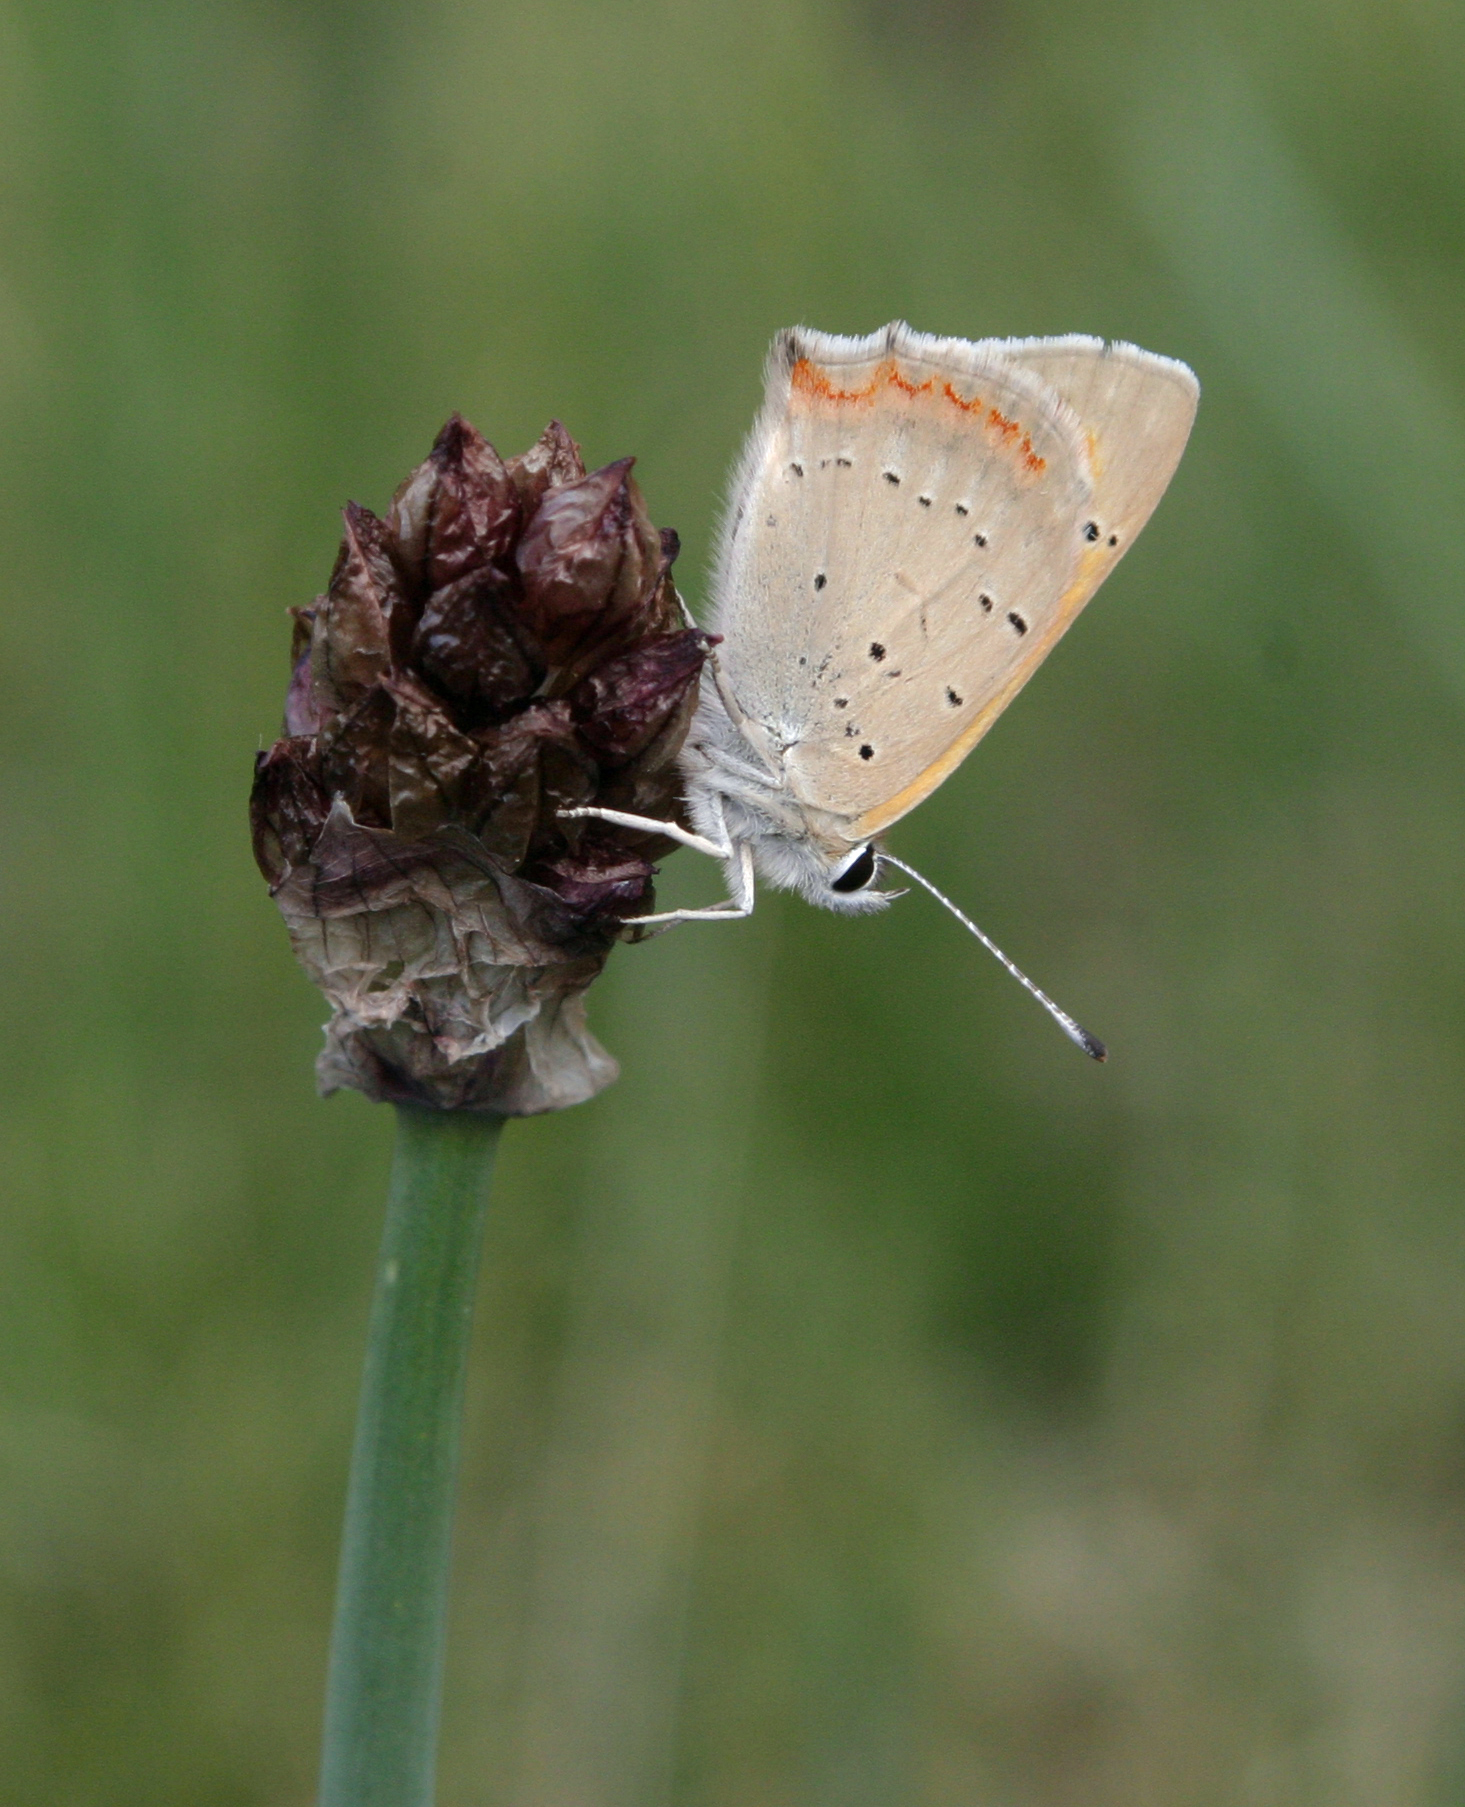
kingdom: Plantae
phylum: Tracheophyta
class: Liliopsida
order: Asparagales
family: Amaryllidaceae
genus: Allium
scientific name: Allium atrosanguineum
